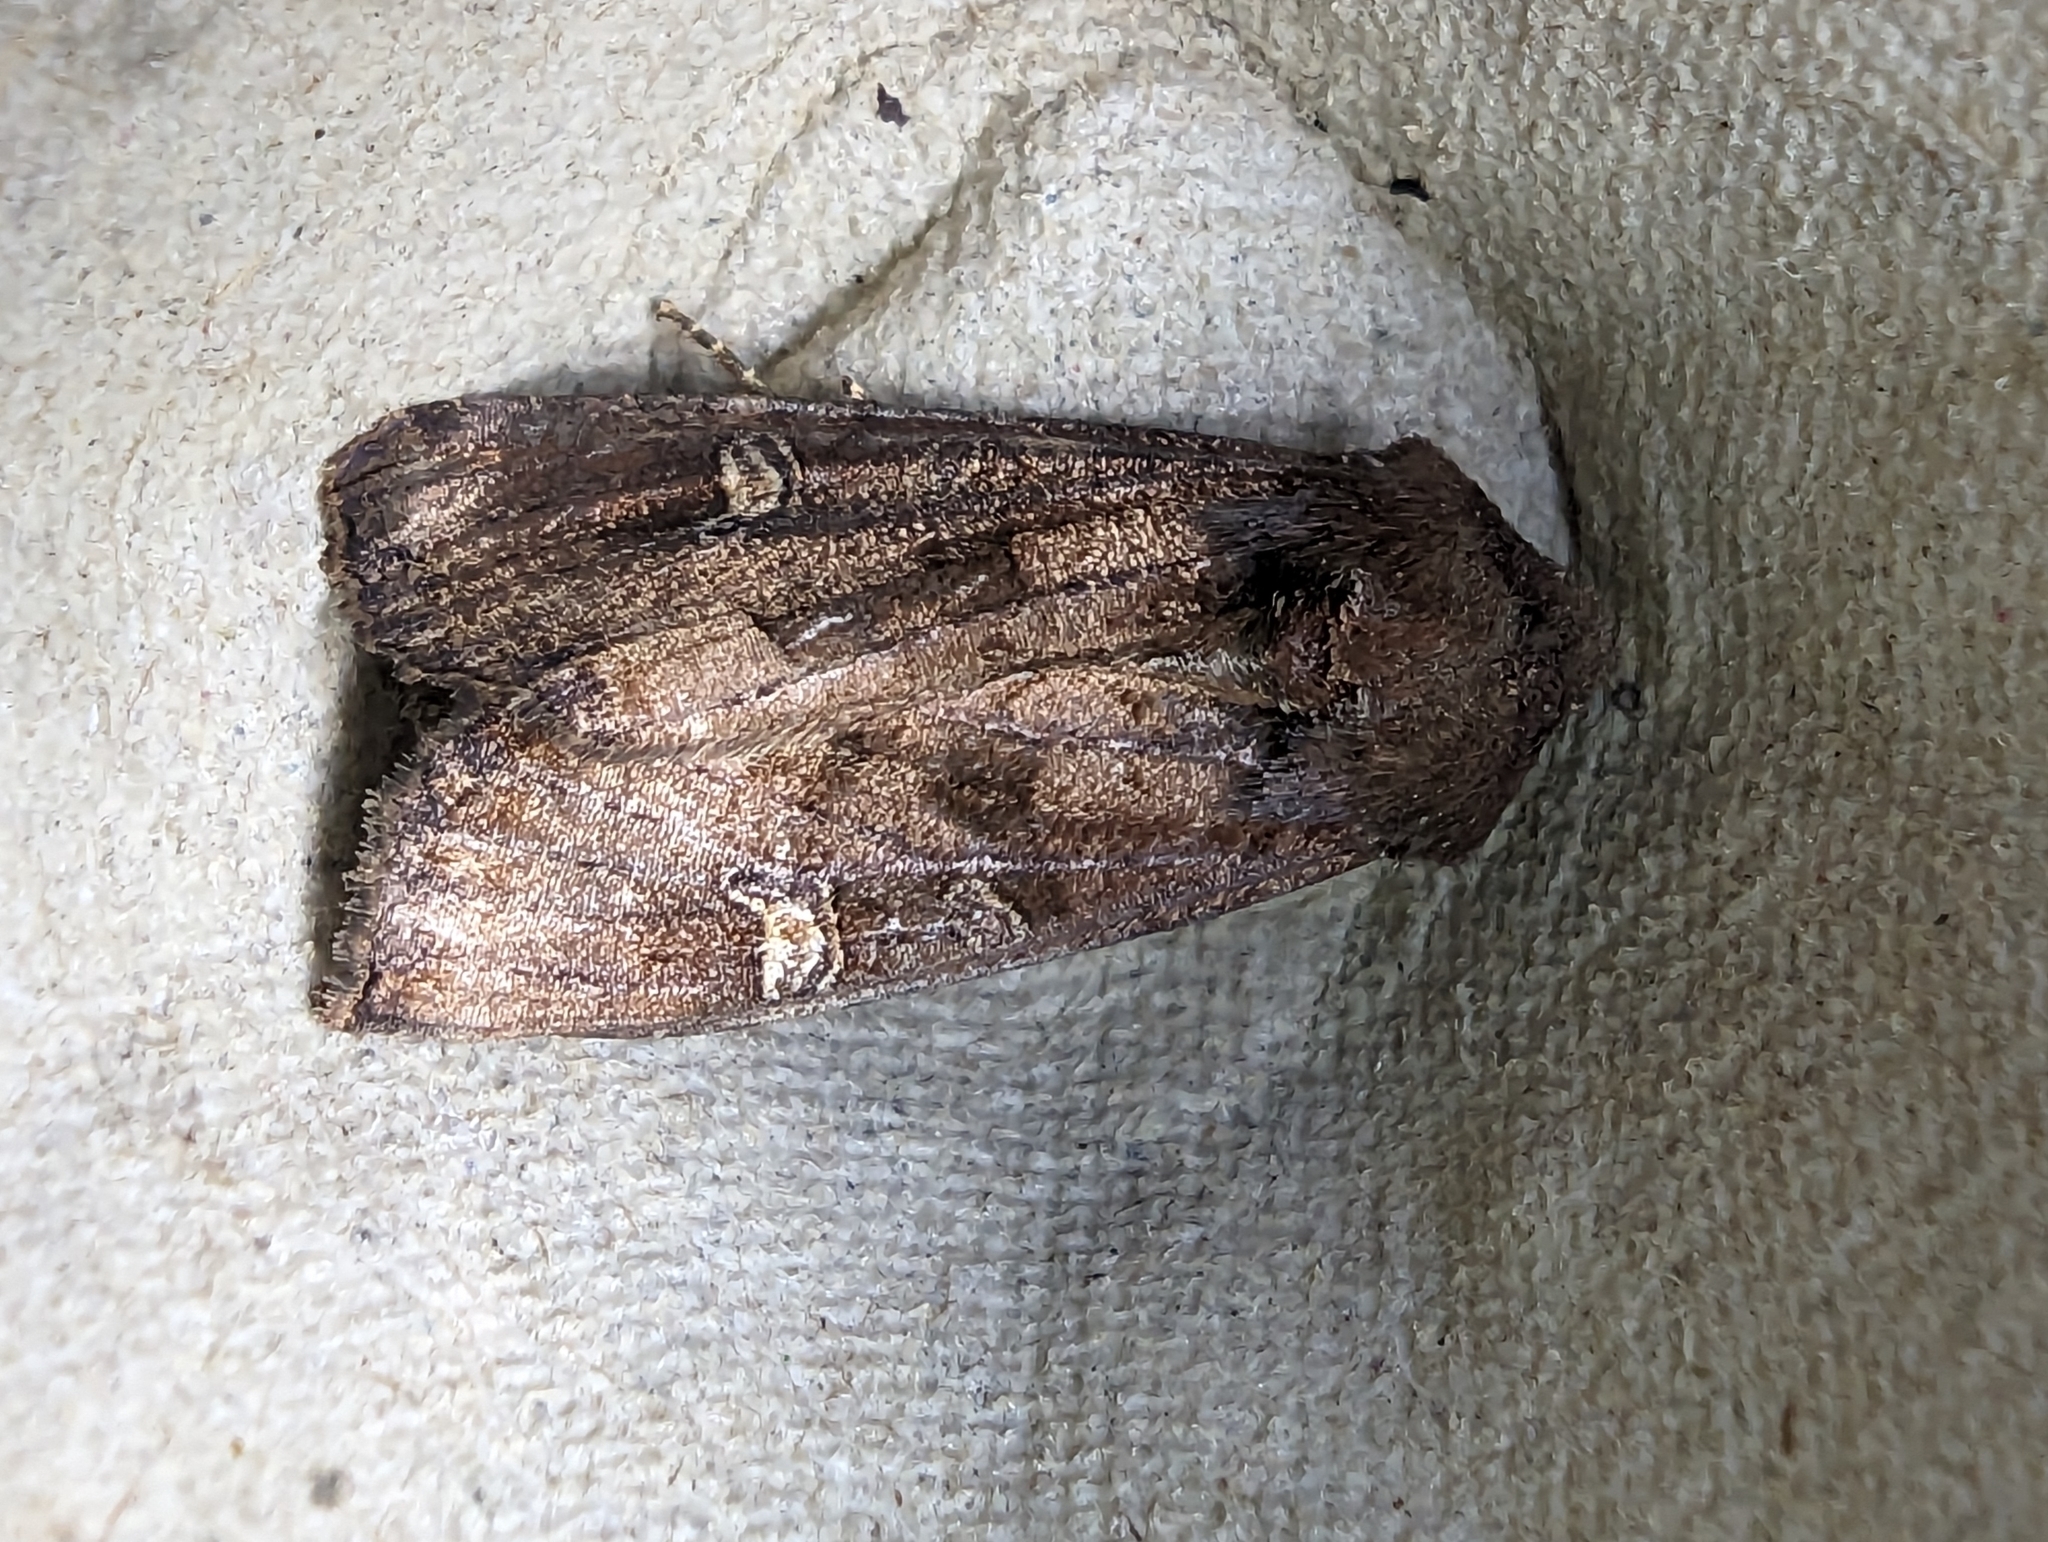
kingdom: Animalia
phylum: Arthropoda
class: Insecta
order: Lepidoptera
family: Noctuidae
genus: Helotropha
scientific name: Helotropha leucostigma
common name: The crescent
